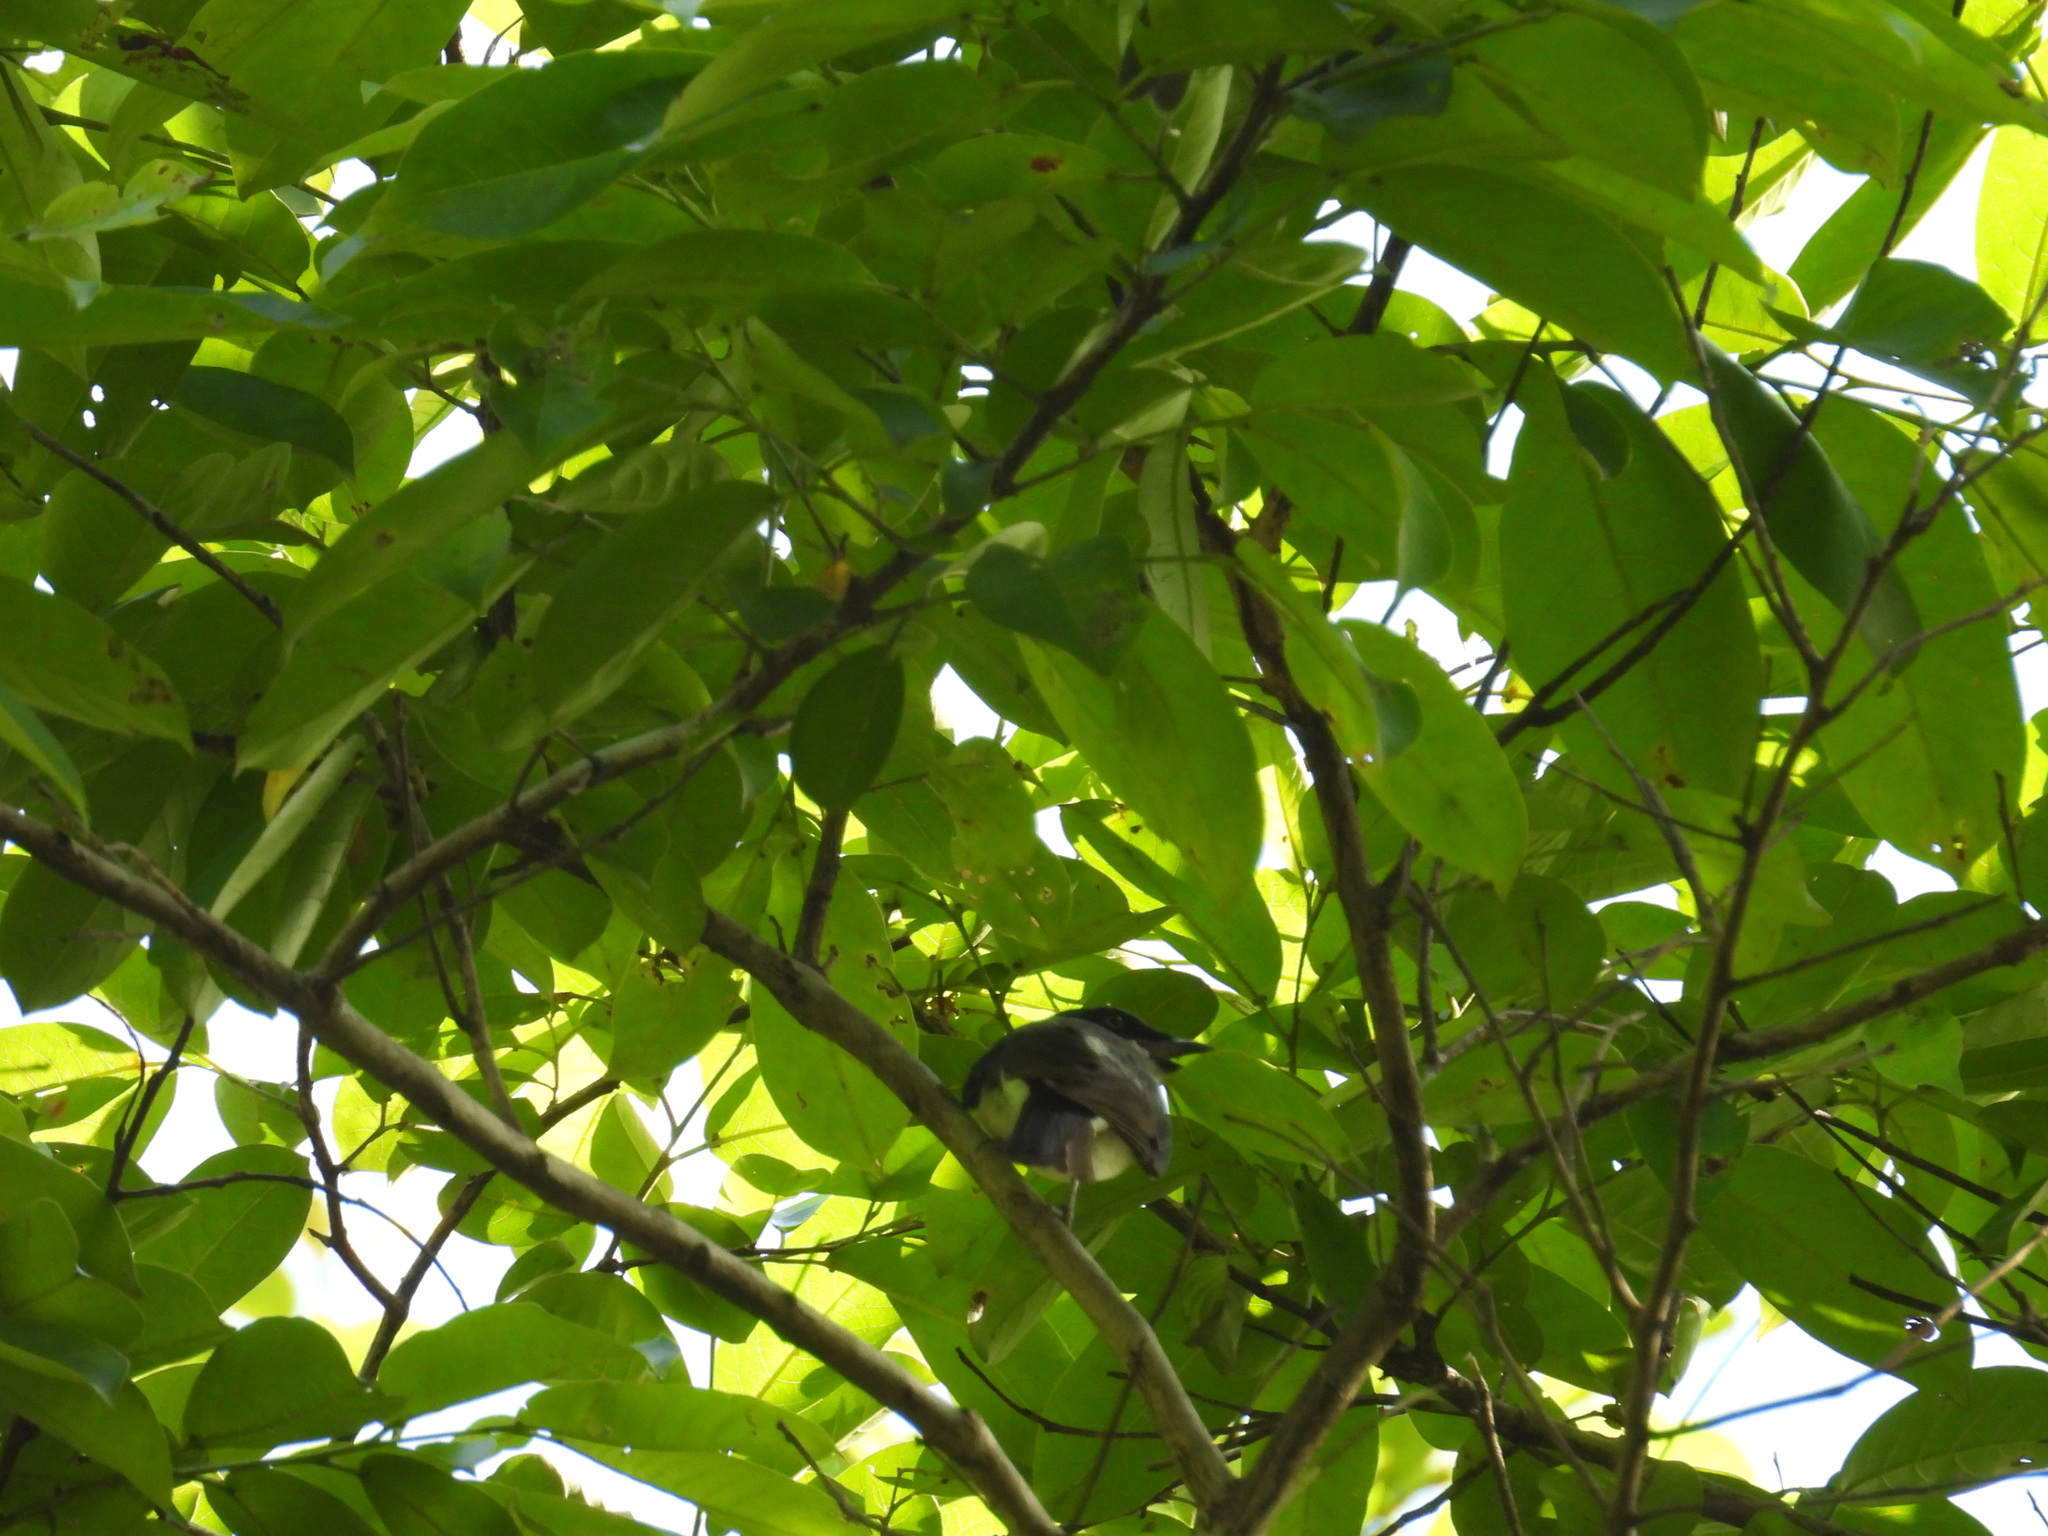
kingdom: Animalia
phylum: Chordata
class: Aves
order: Cuculiformes
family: Cuculidae
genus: Clamator
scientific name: Clamator jacobinus
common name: Jacobin cuckoo
